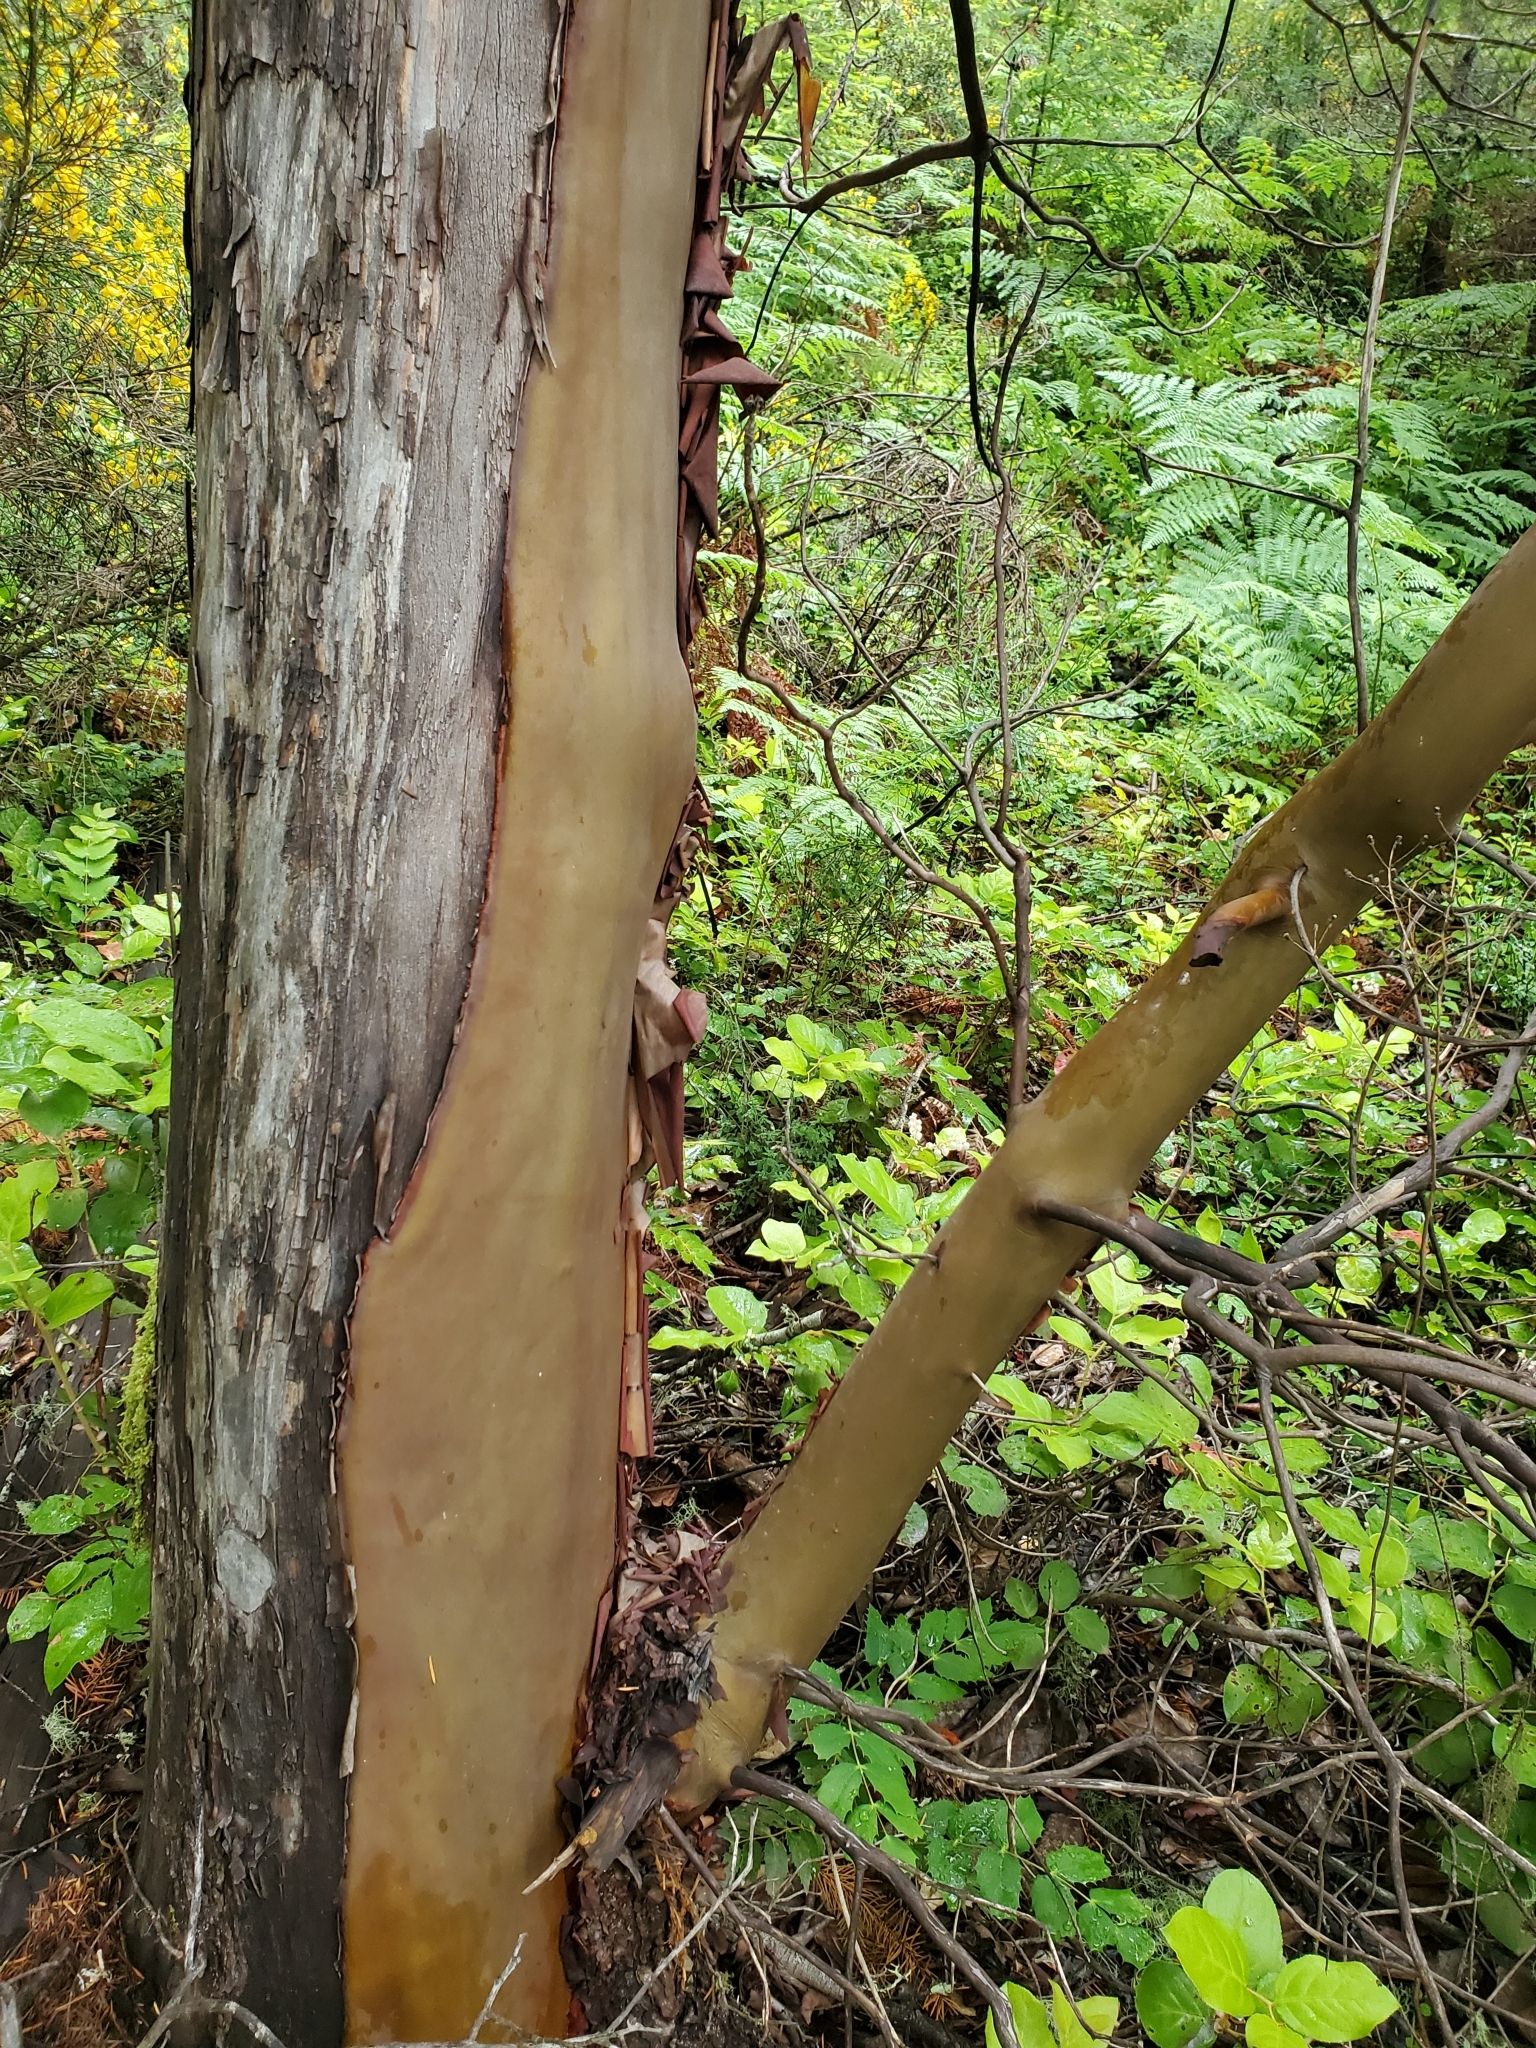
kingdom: Plantae
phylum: Tracheophyta
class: Magnoliopsida
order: Ericales
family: Ericaceae
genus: Arbutus
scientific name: Arbutus menziesii
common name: Pacific madrone
